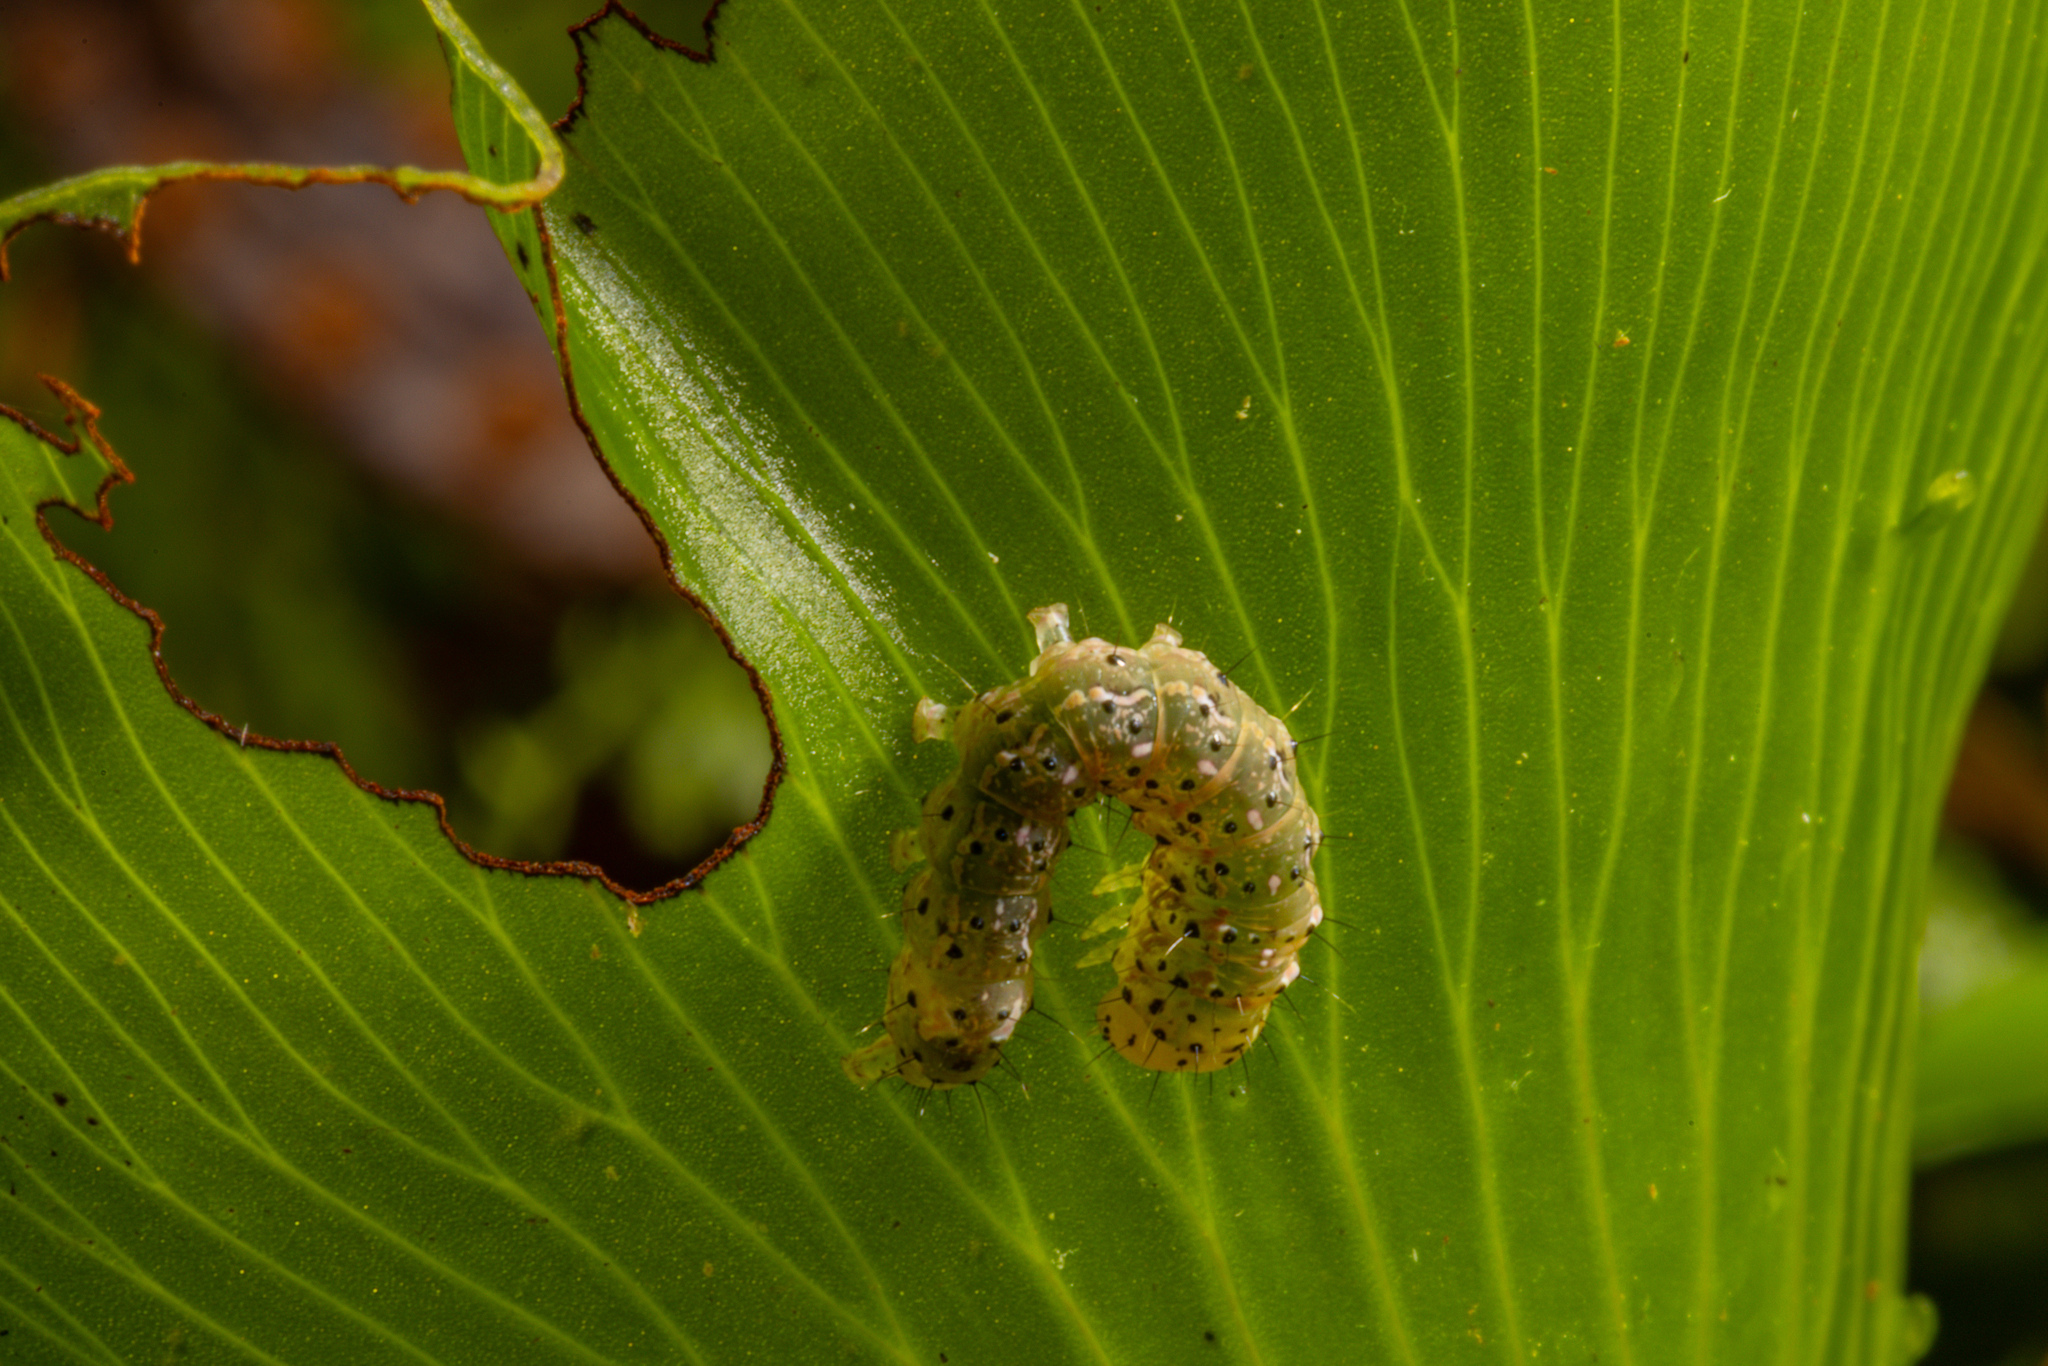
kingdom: Animalia
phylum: Arthropoda
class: Insecta
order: Lepidoptera
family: Noctuidae
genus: Feredayia
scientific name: Feredayia grammosa
